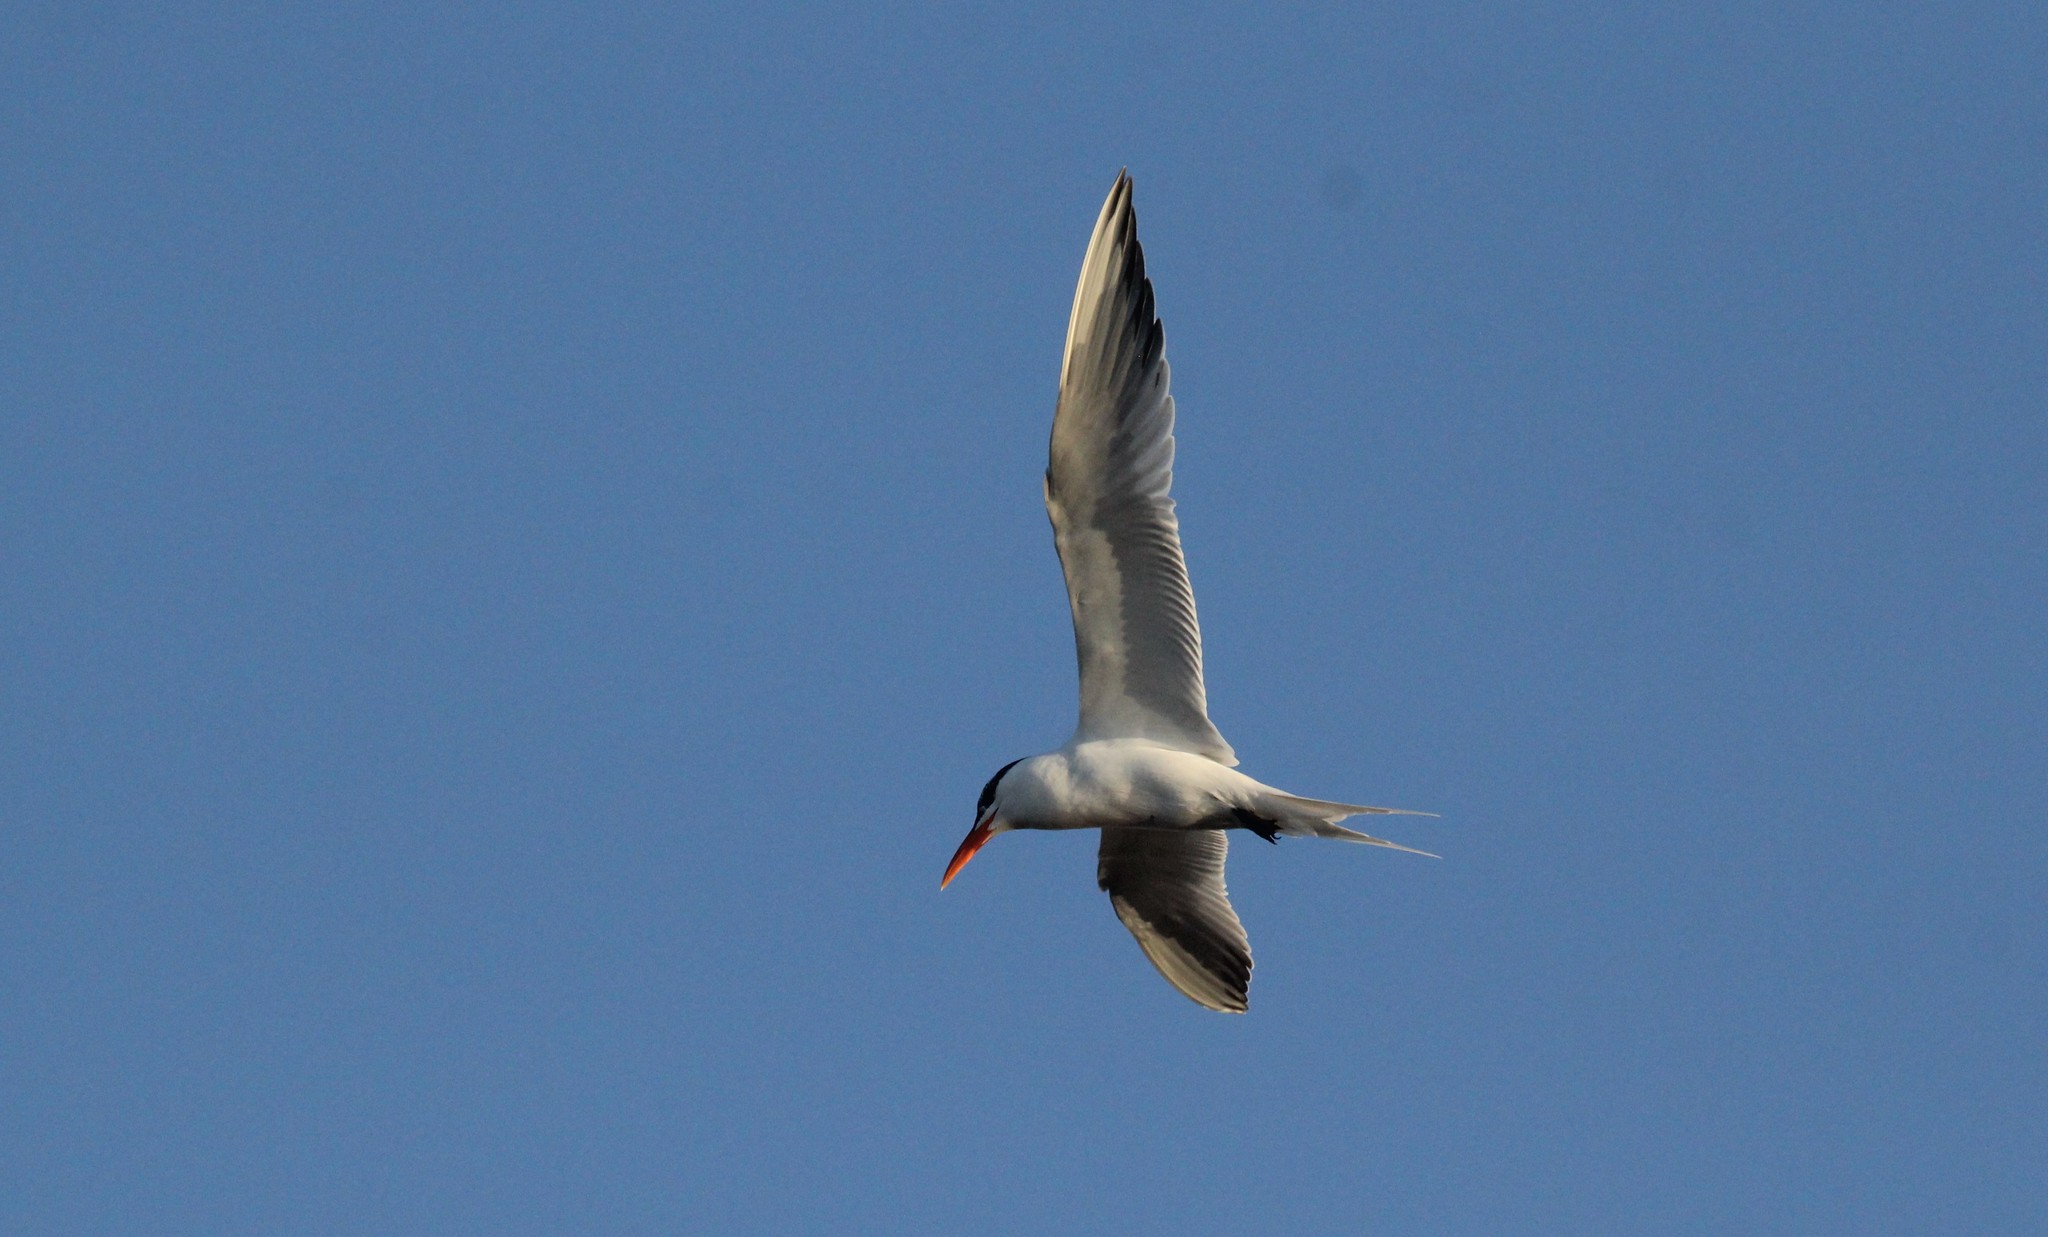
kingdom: Animalia
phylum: Chordata
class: Aves
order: Charadriiformes
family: Laridae
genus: Sterna
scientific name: Sterna hirundinacea
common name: South american tern
